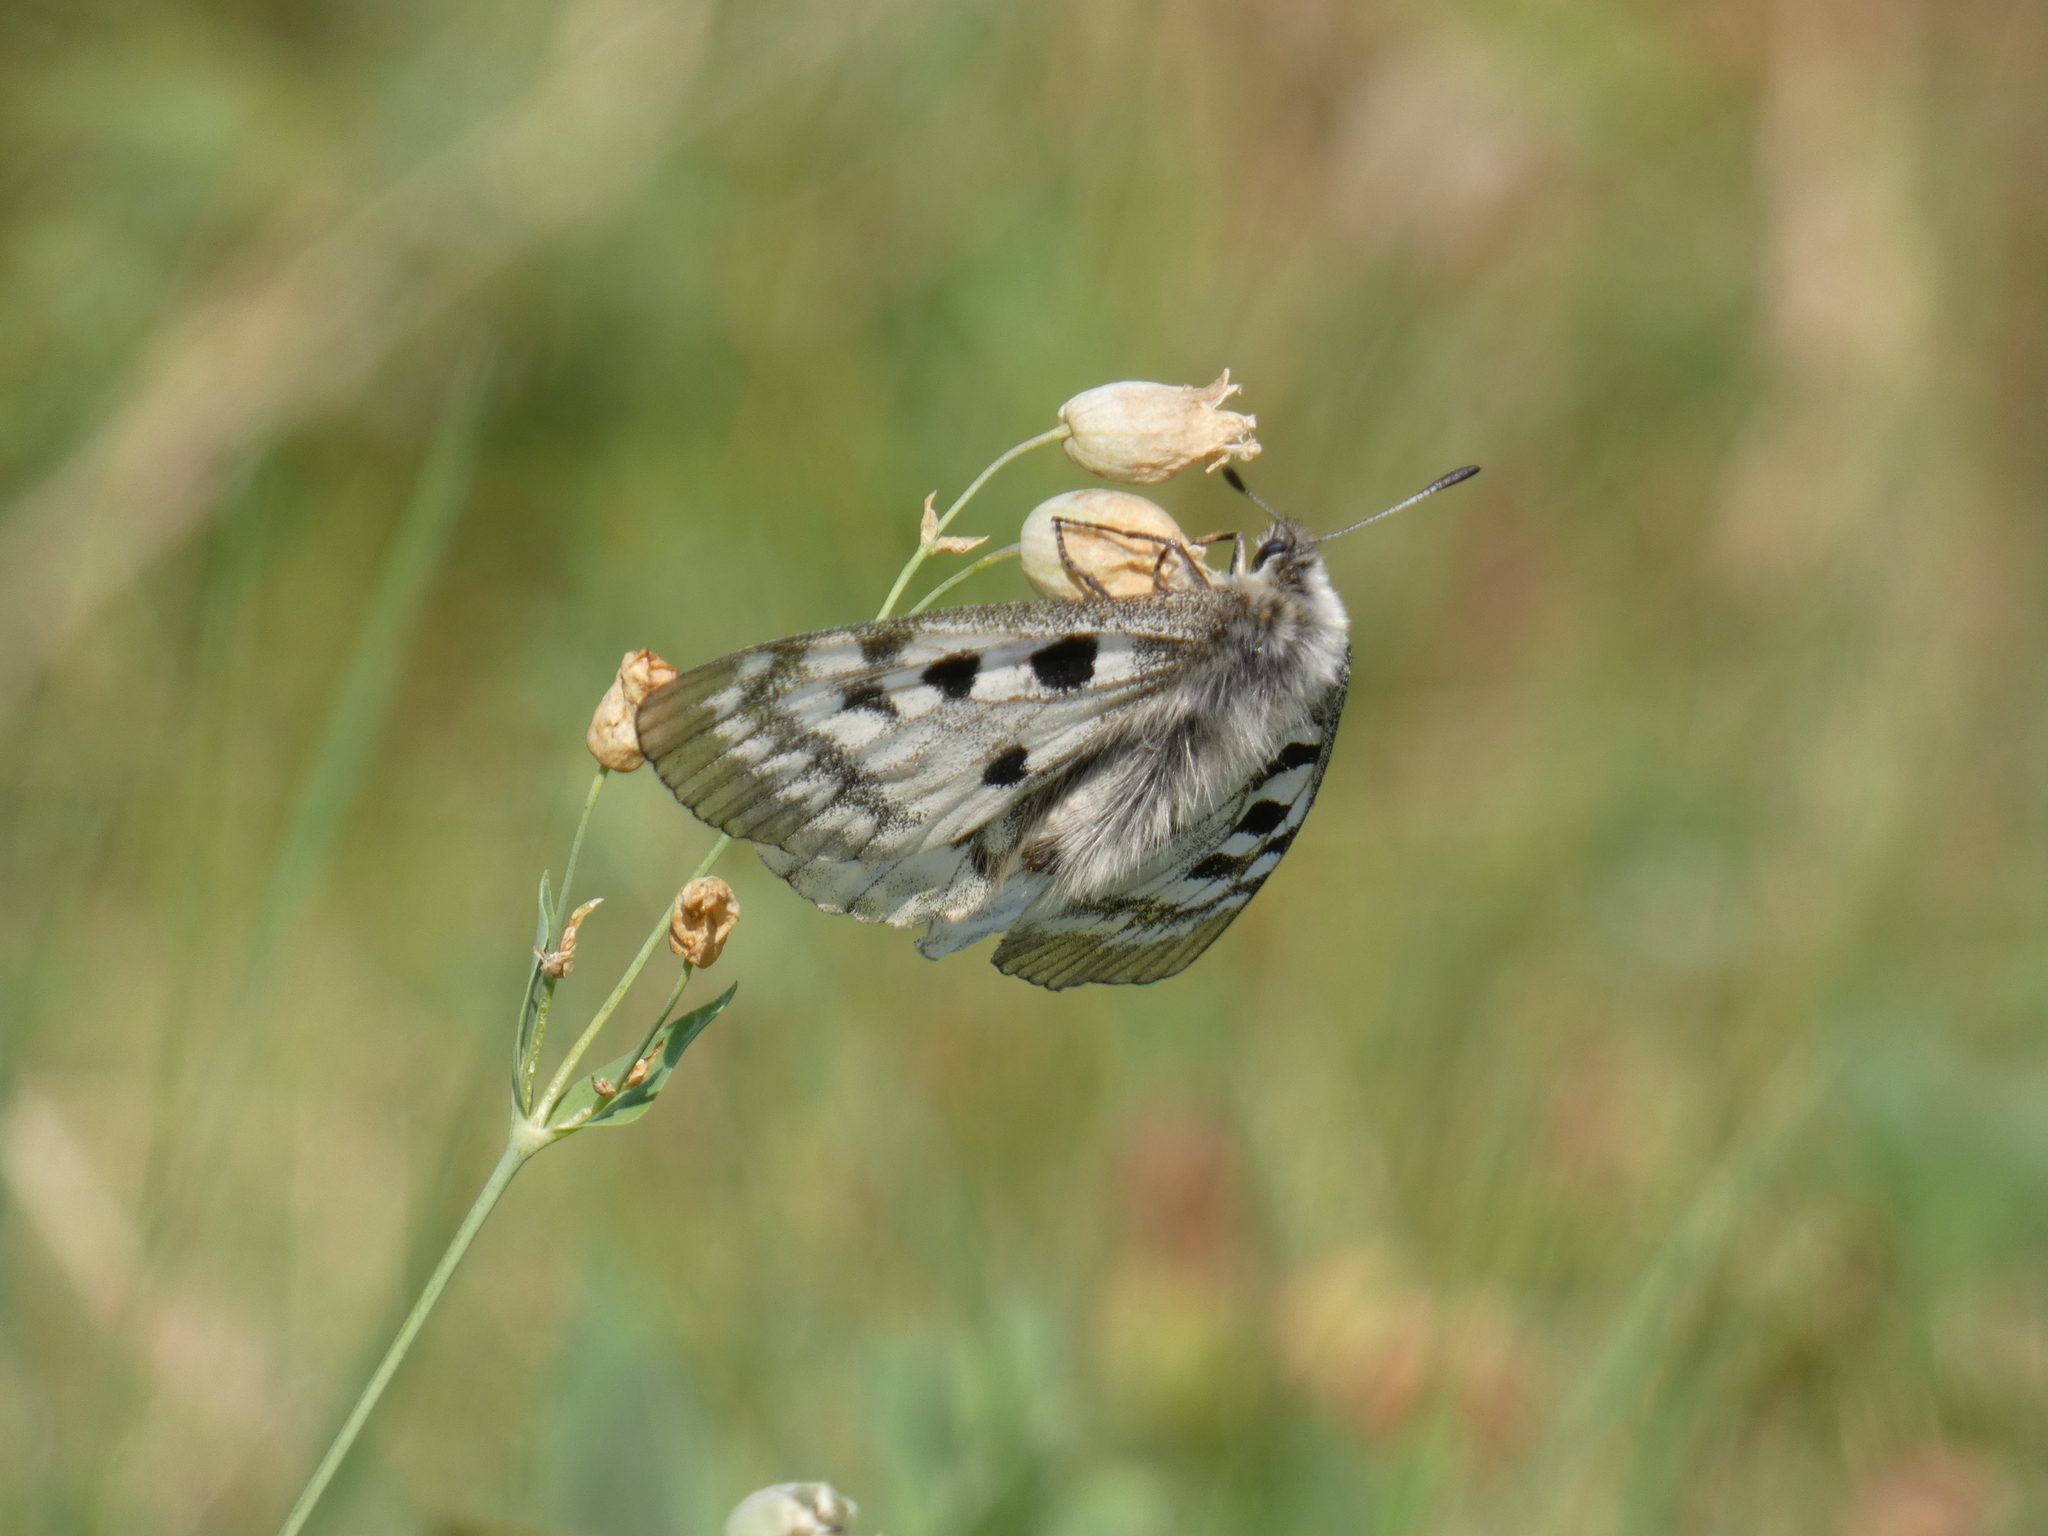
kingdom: Animalia
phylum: Arthropoda
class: Insecta
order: Lepidoptera
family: Papilionidae
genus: Parnassius
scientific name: Parnassius apollo
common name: Apollo
